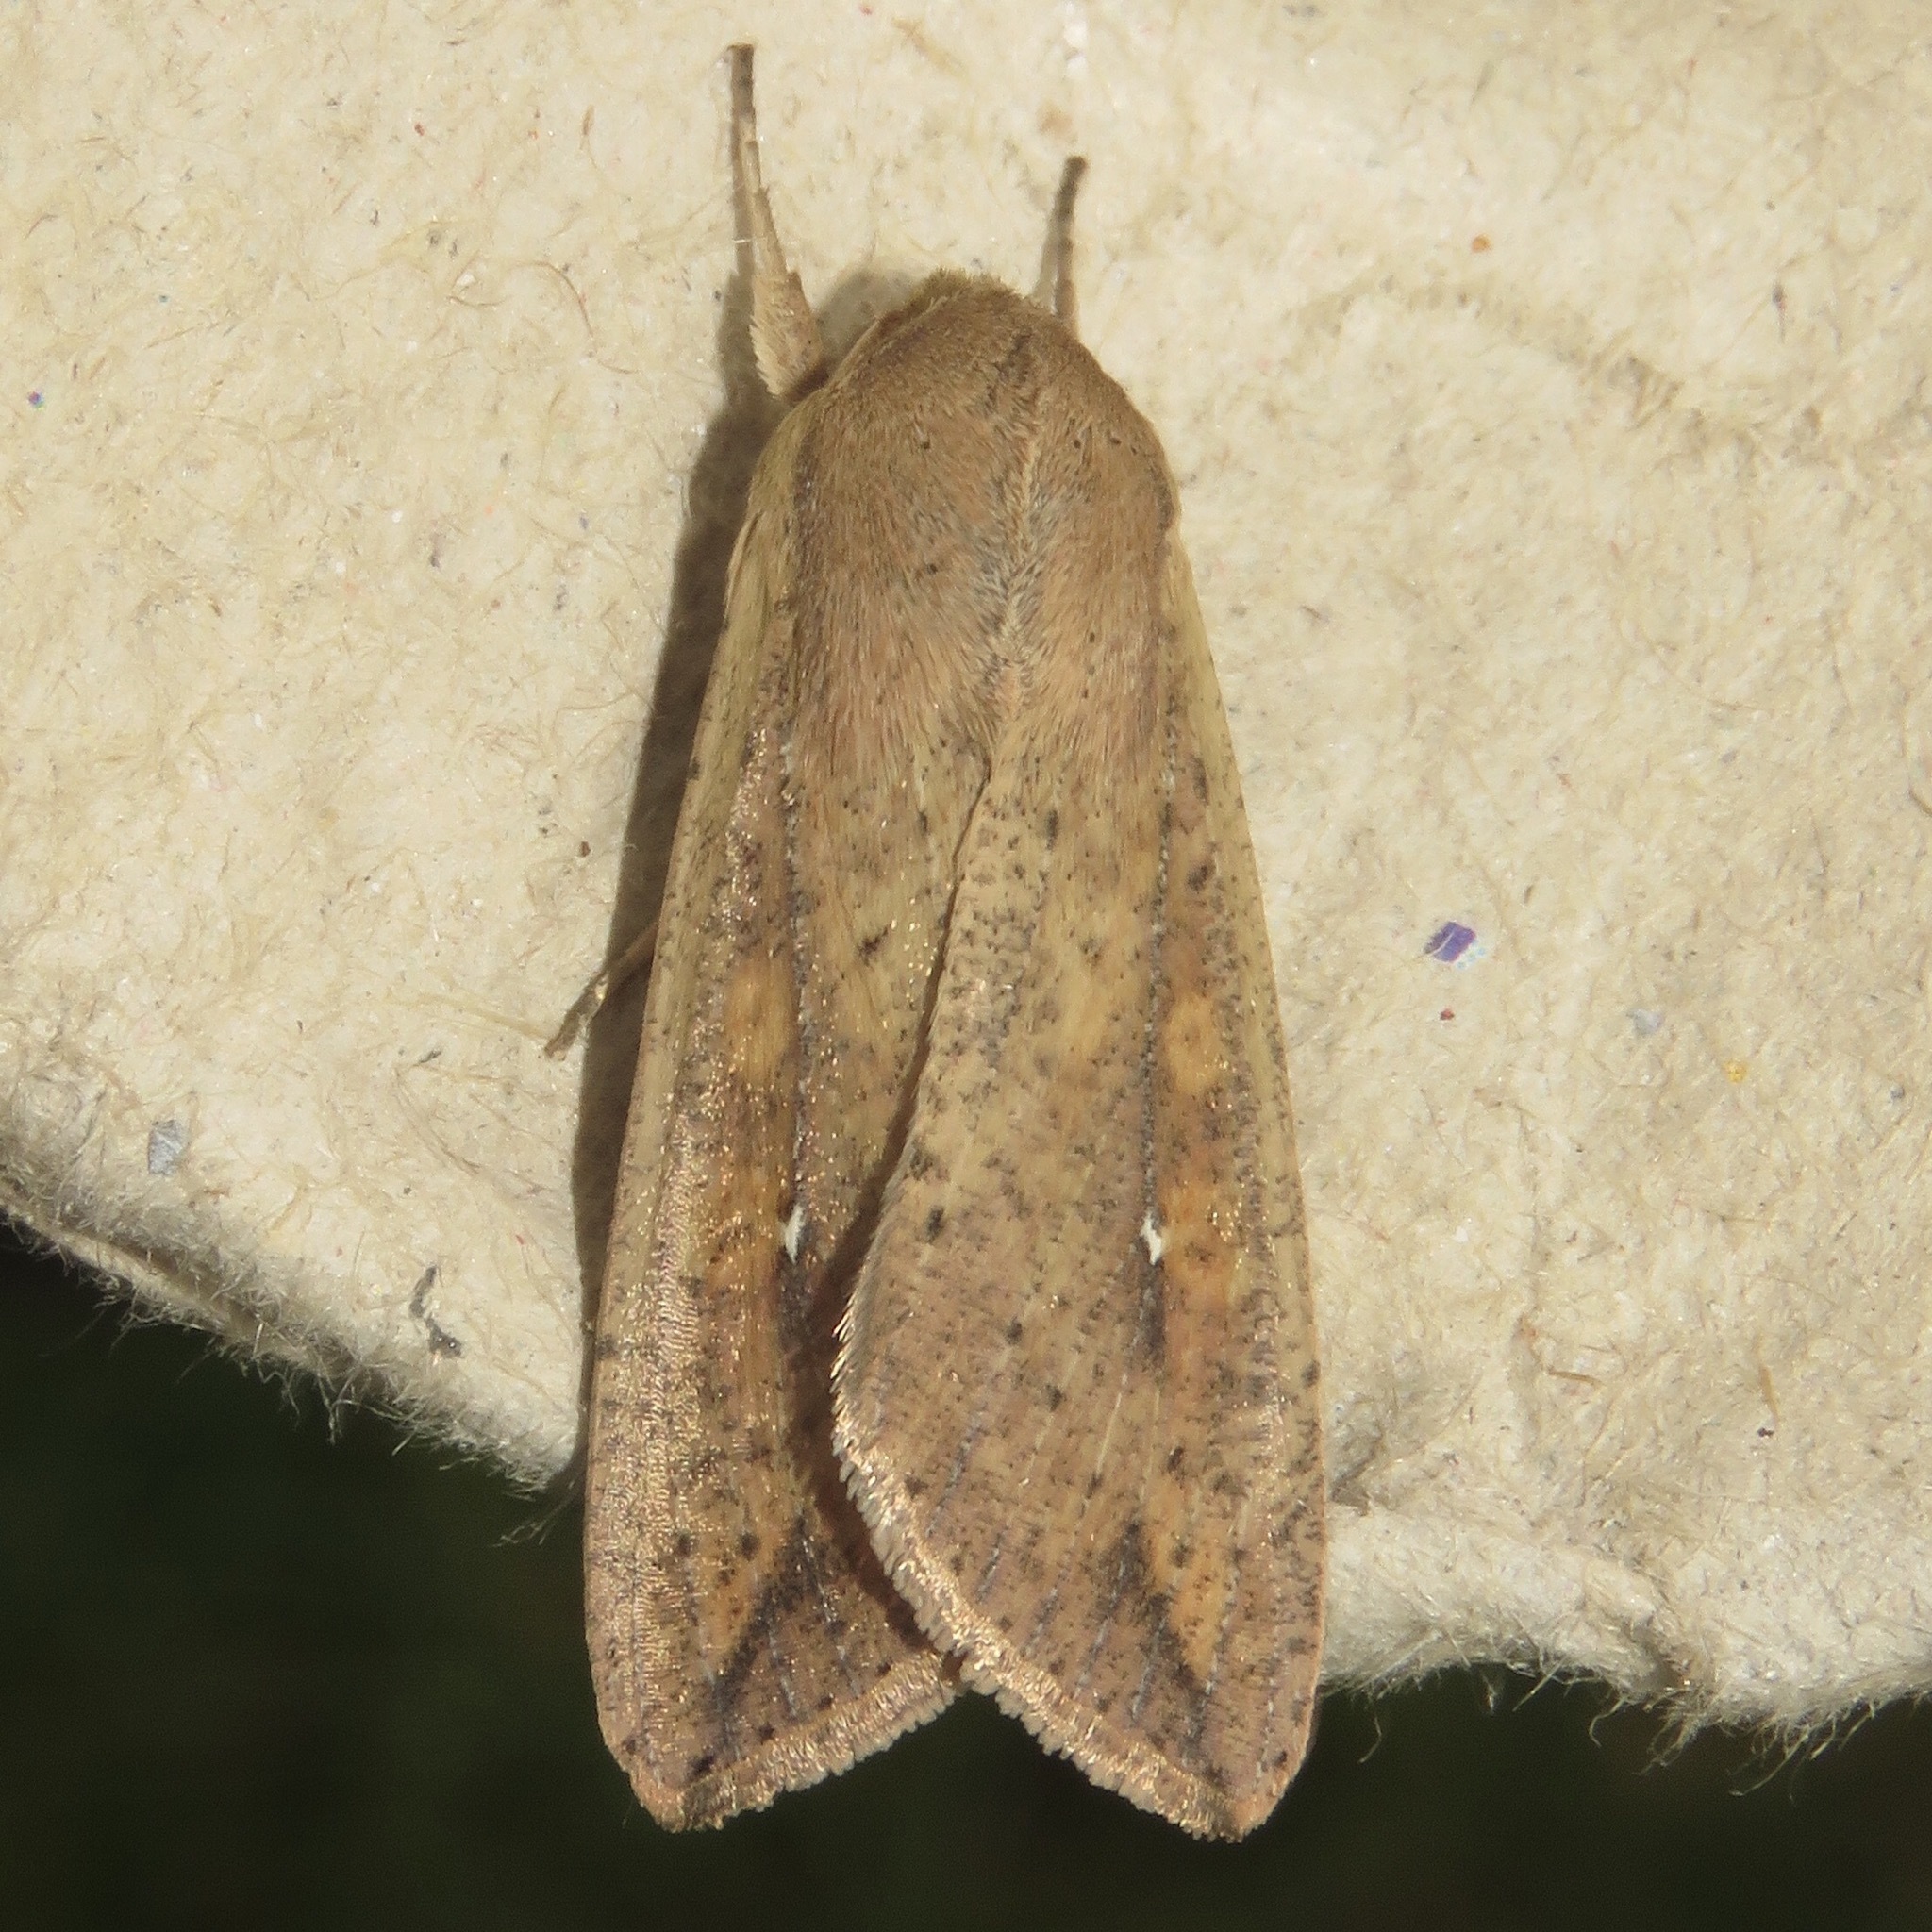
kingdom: Animalia
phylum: Arthropoda
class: Insecta
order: Lepidoptera
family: Noctuidae
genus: Mythimna
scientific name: Mythimna unipuncta
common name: White-speck
